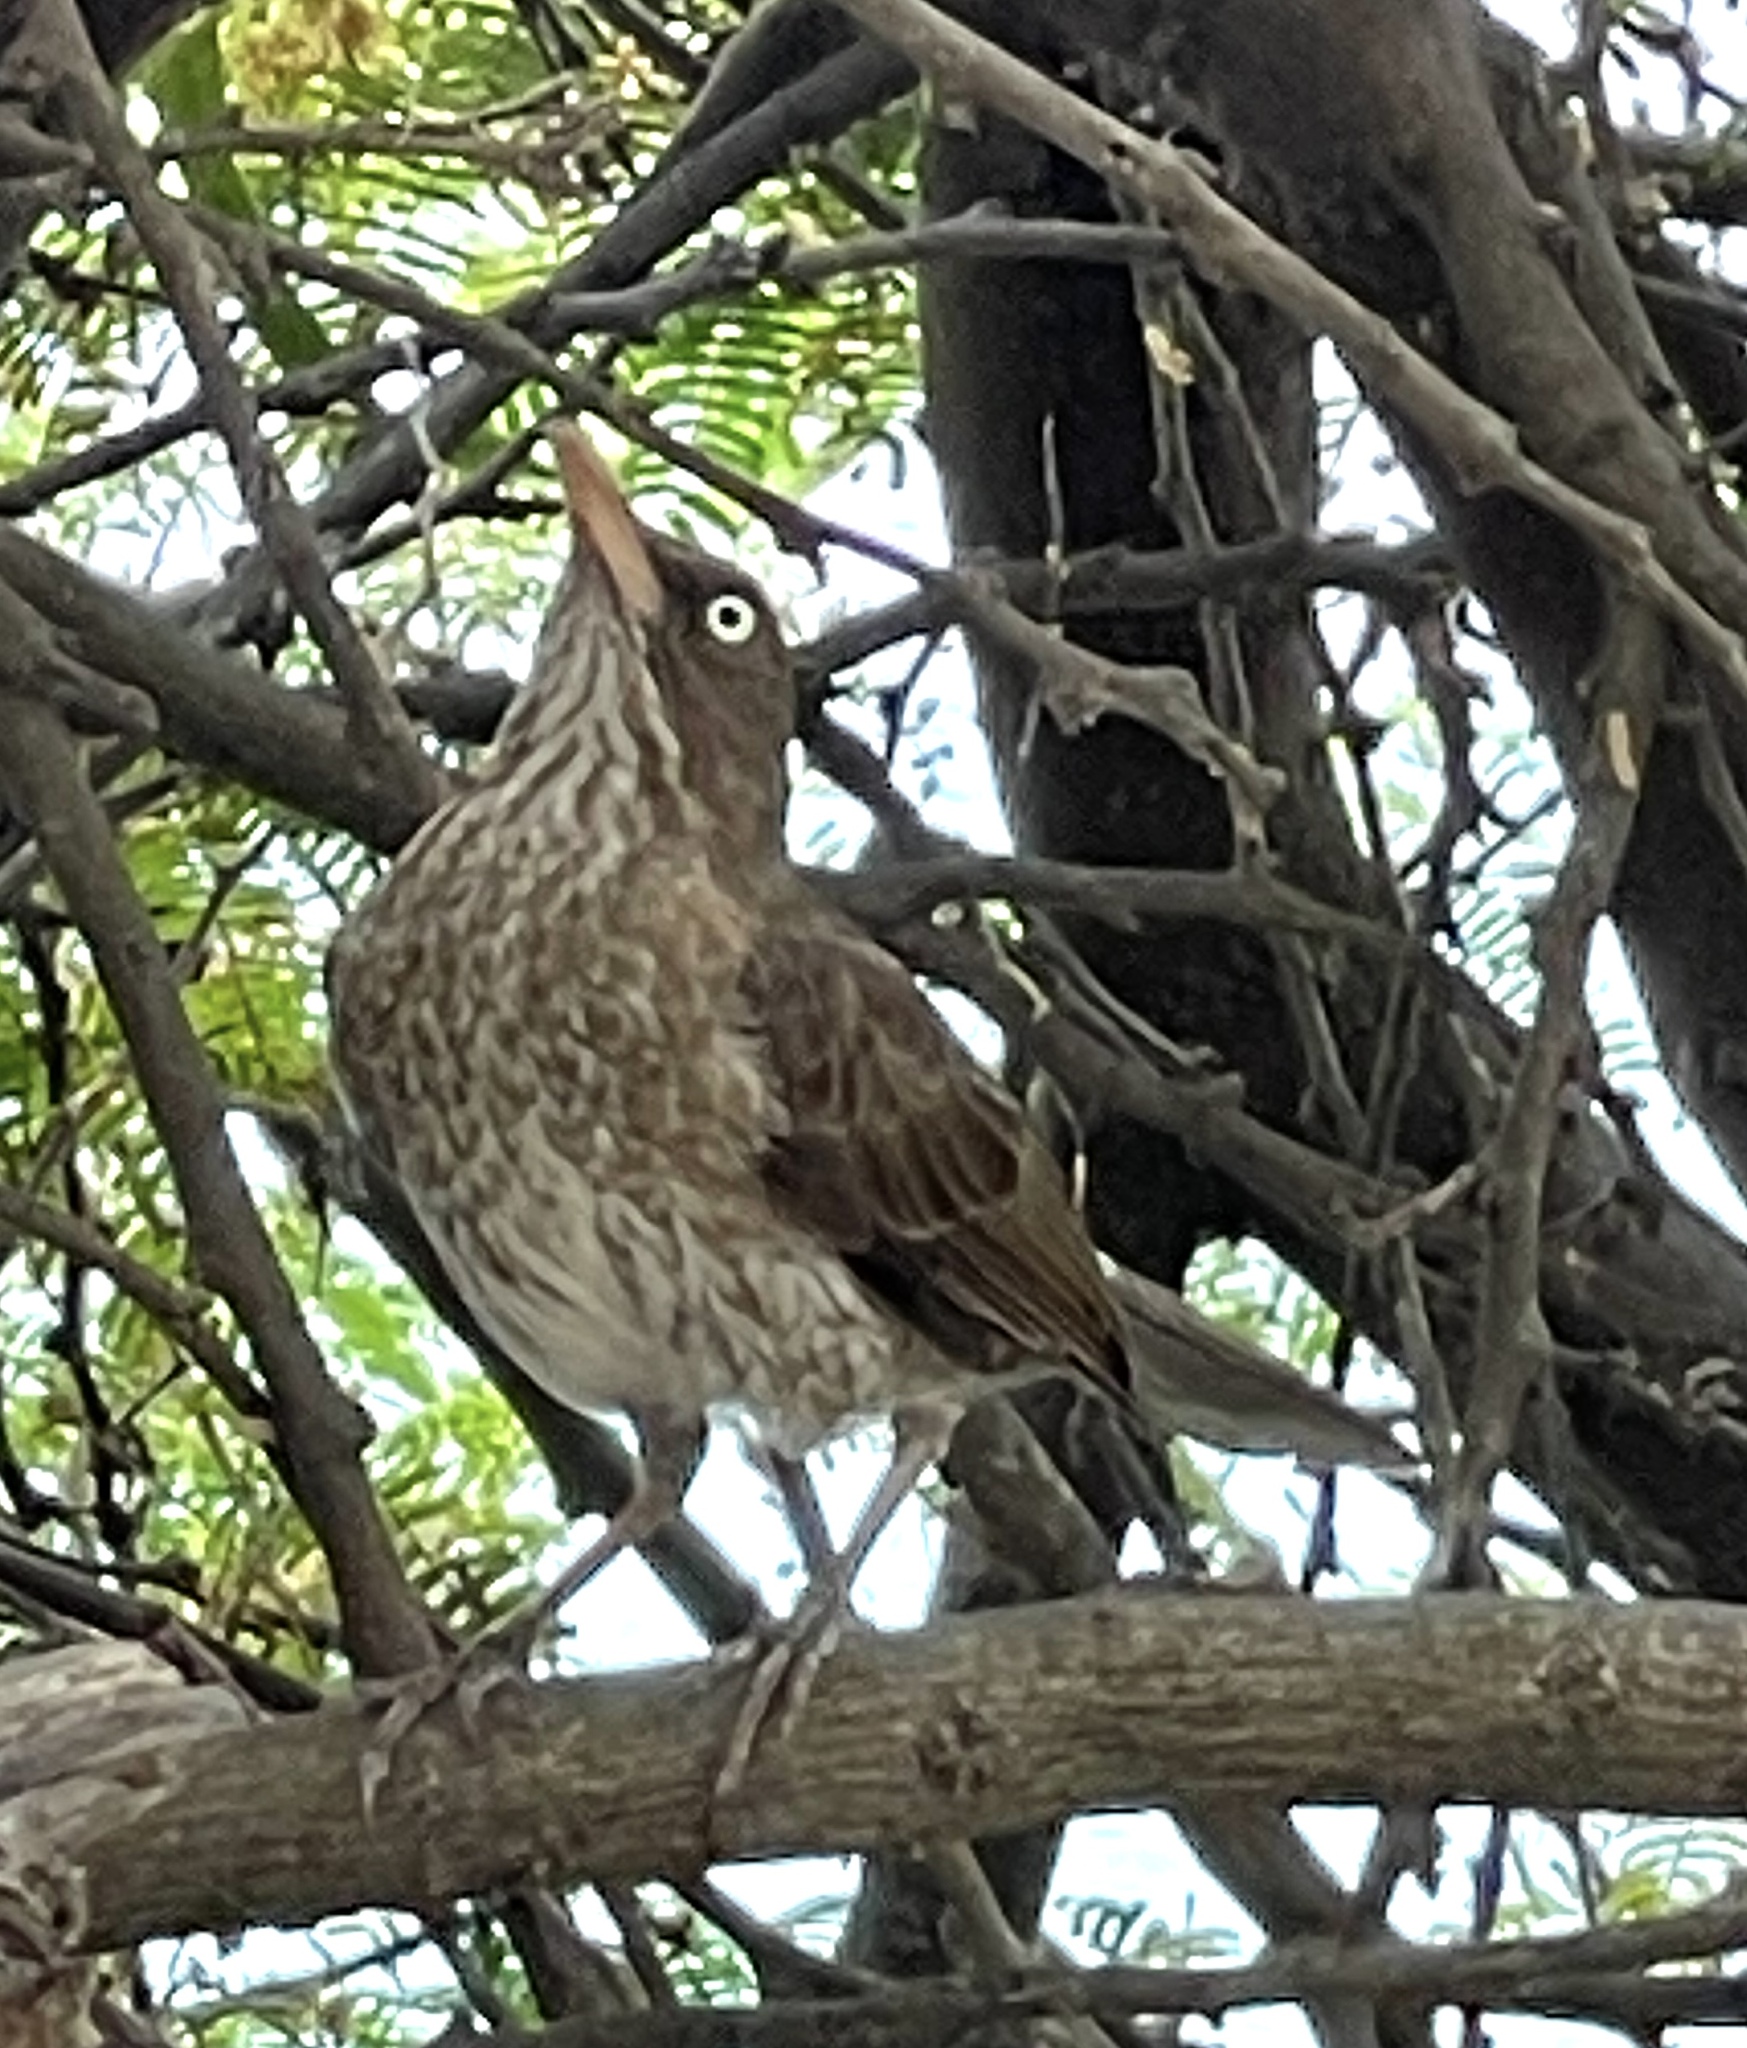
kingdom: Animalia
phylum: Chordata
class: Aves
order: Passeriformes
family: Mimidae
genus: Margarops
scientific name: Margarops fuscatus
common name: Pearly-eyed thrasher
